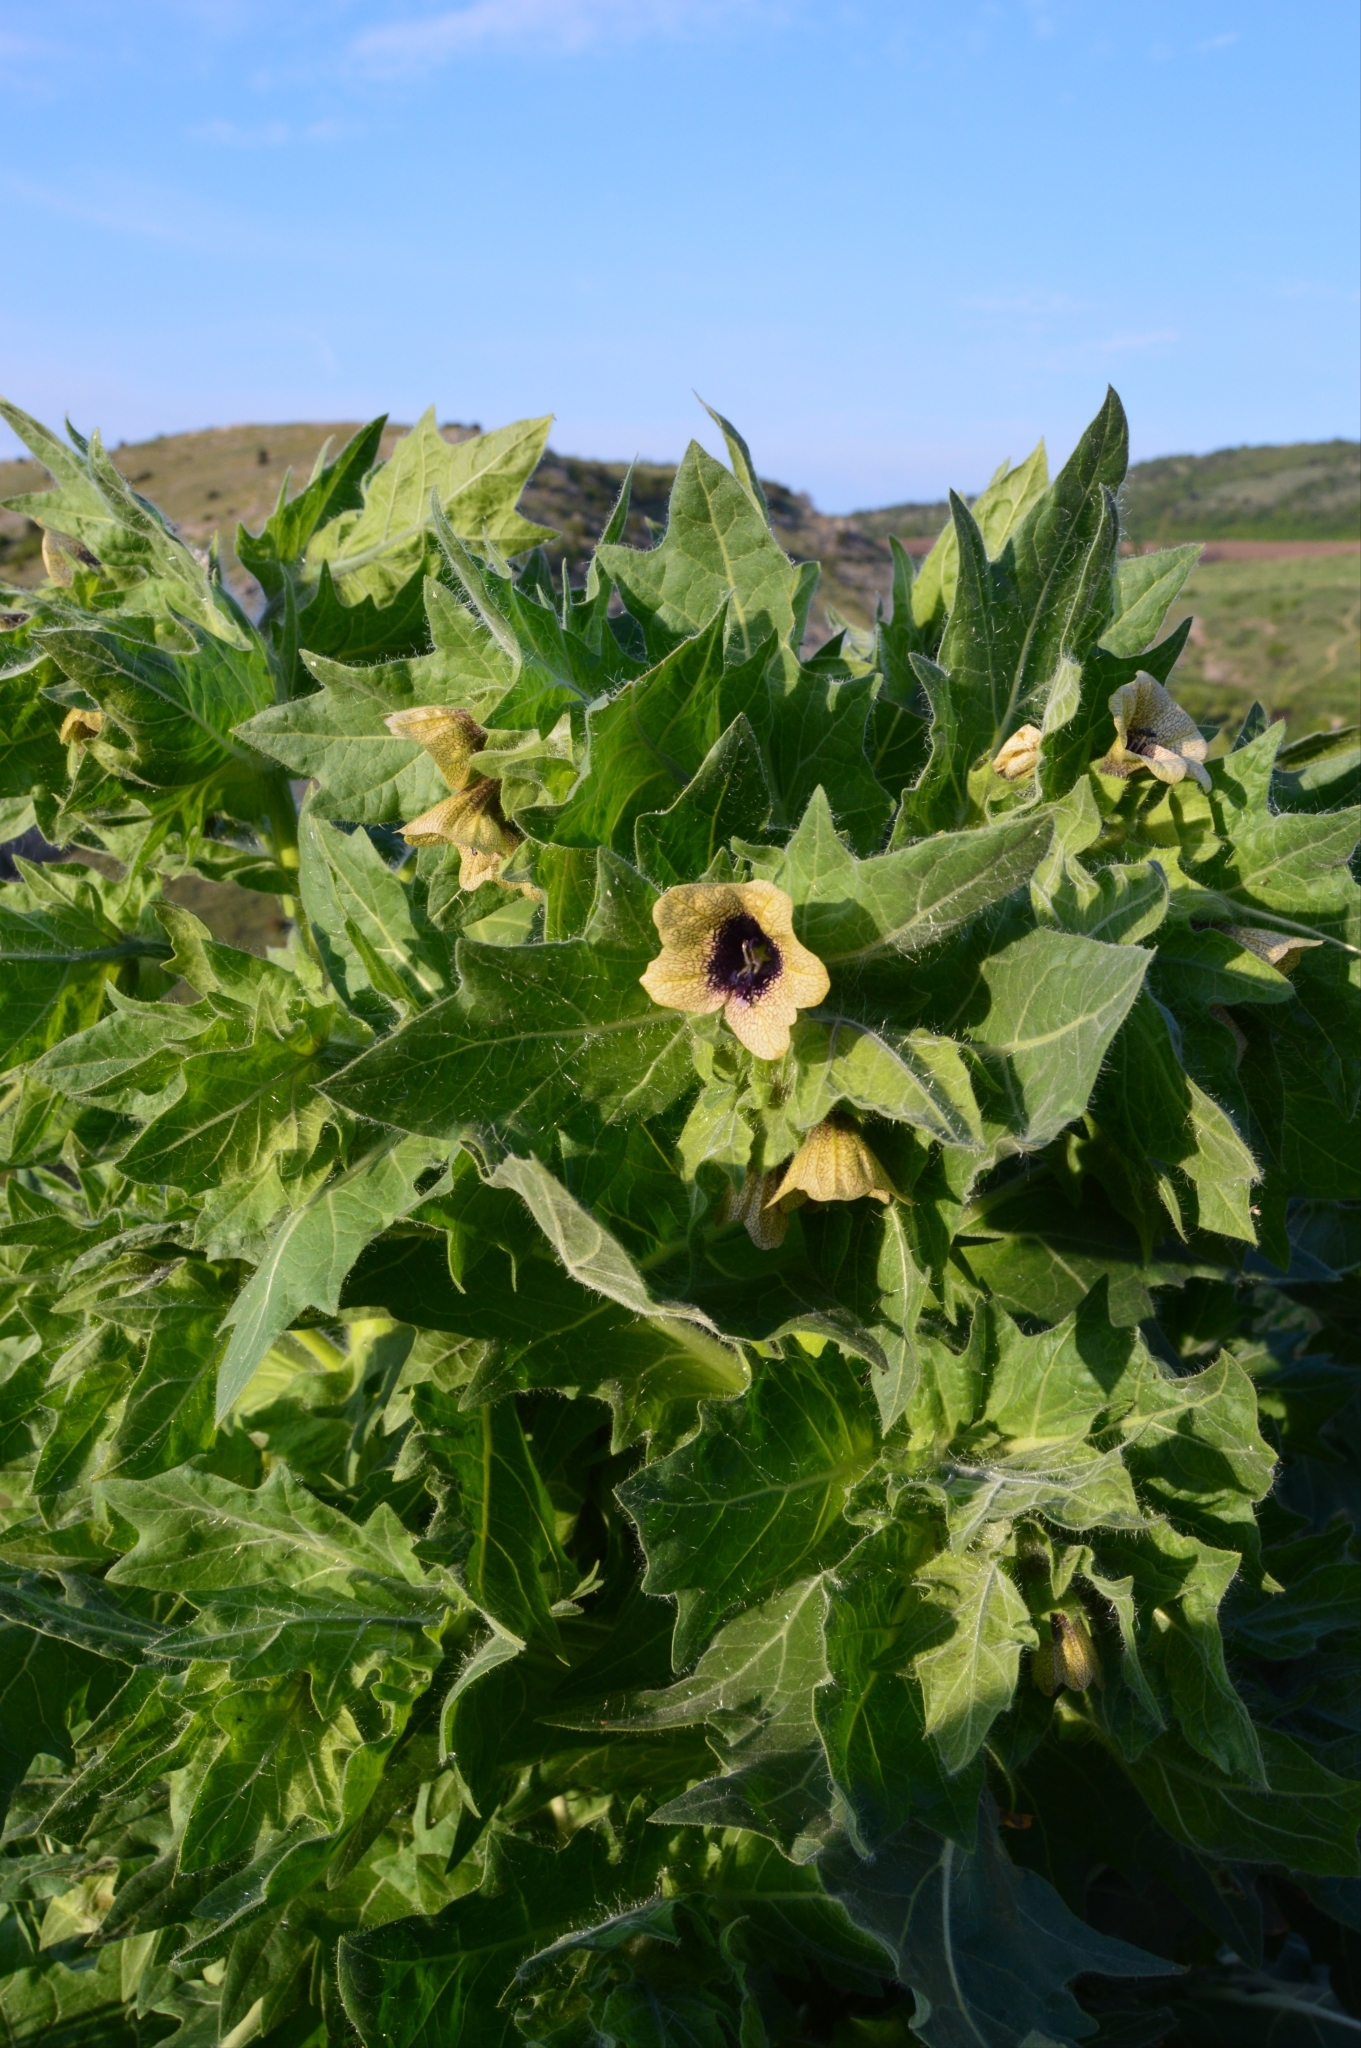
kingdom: Plantae
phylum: Tracheophyta
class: Magnoliopsida
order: Solanales
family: Solanaceae
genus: Hyoscyamus
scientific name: Hyoscyamus niger
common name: Henbane
